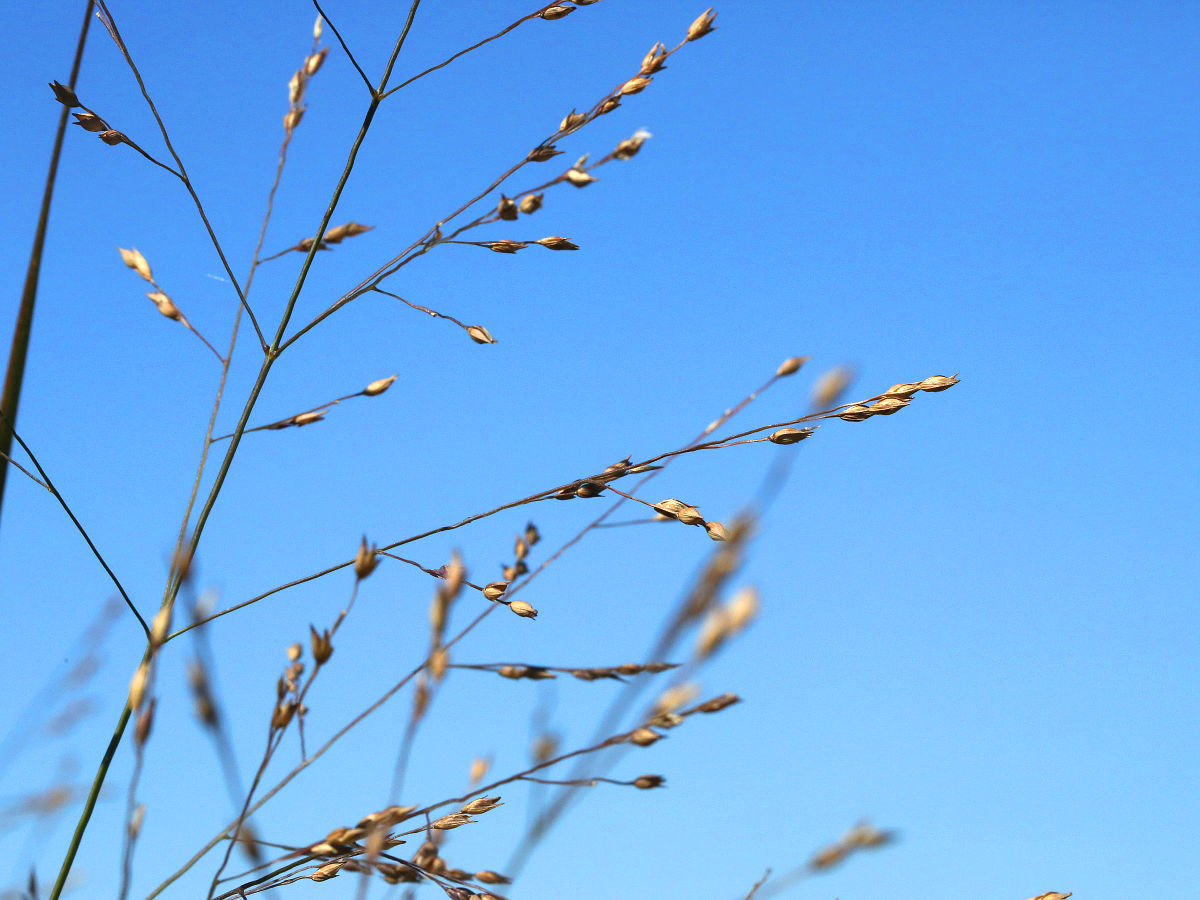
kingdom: Plantae
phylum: Tracheophyta
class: Liliopsida
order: Poales
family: Poaceae
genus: Panicum
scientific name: Panicum virgatum
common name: Switchgrass
